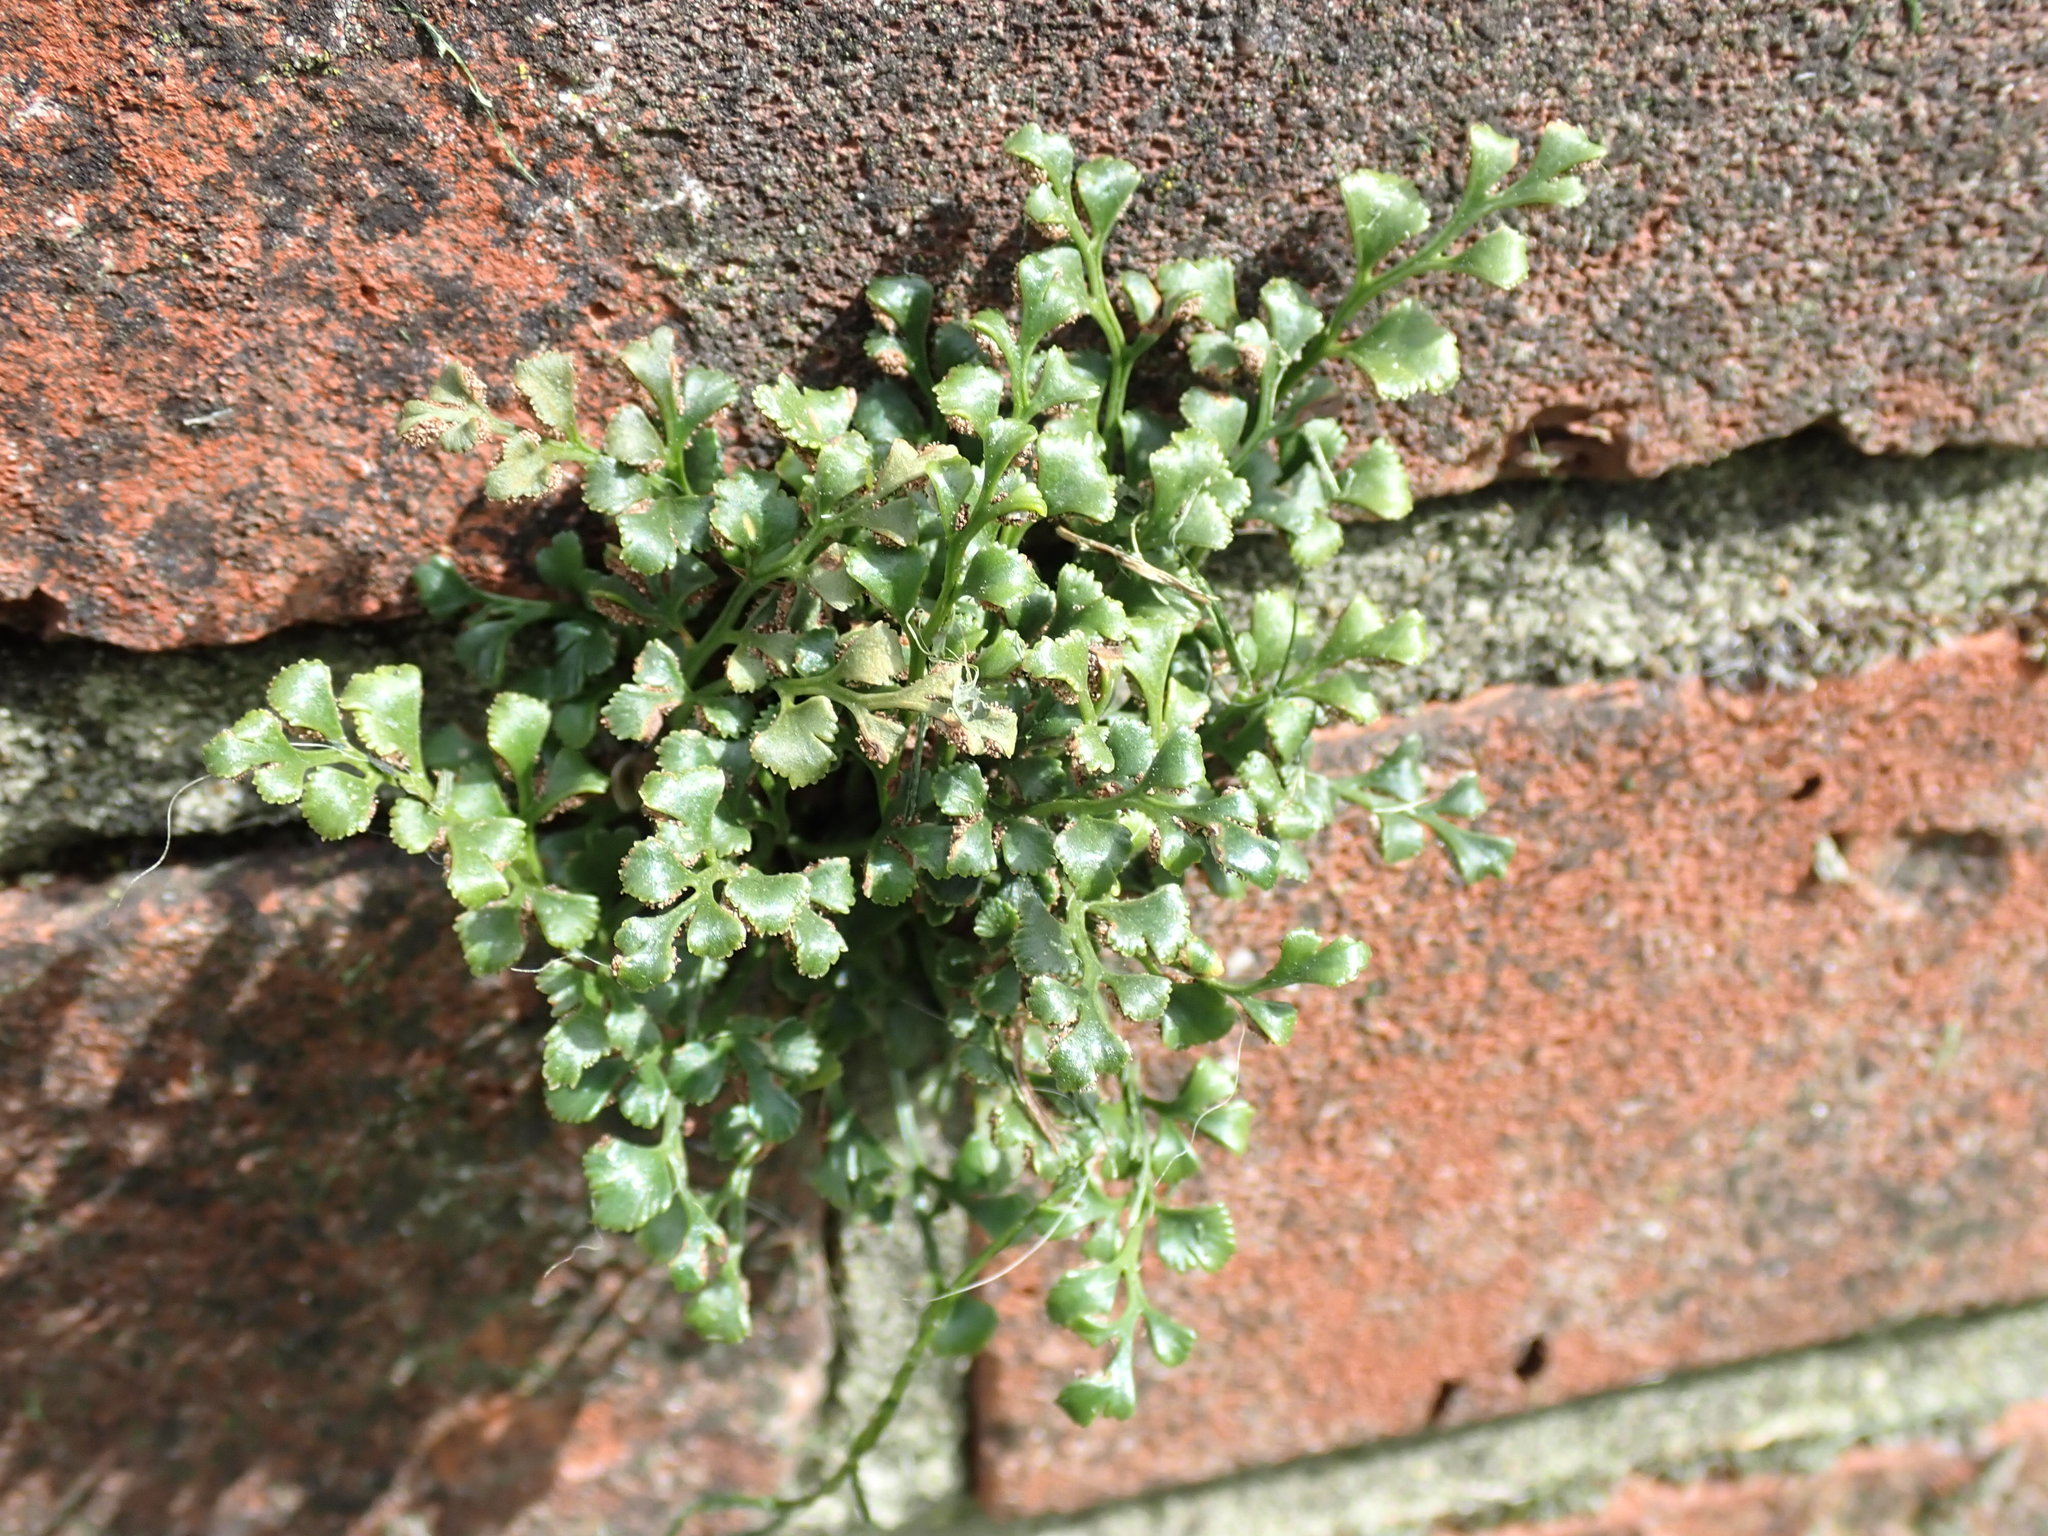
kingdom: Plantae
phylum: Tracheophyta
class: Polypodiopsida
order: Polypodiales
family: Aspleniaceae
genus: Asplenium
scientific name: Asplenium ruta-muraria
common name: Wall-rue
